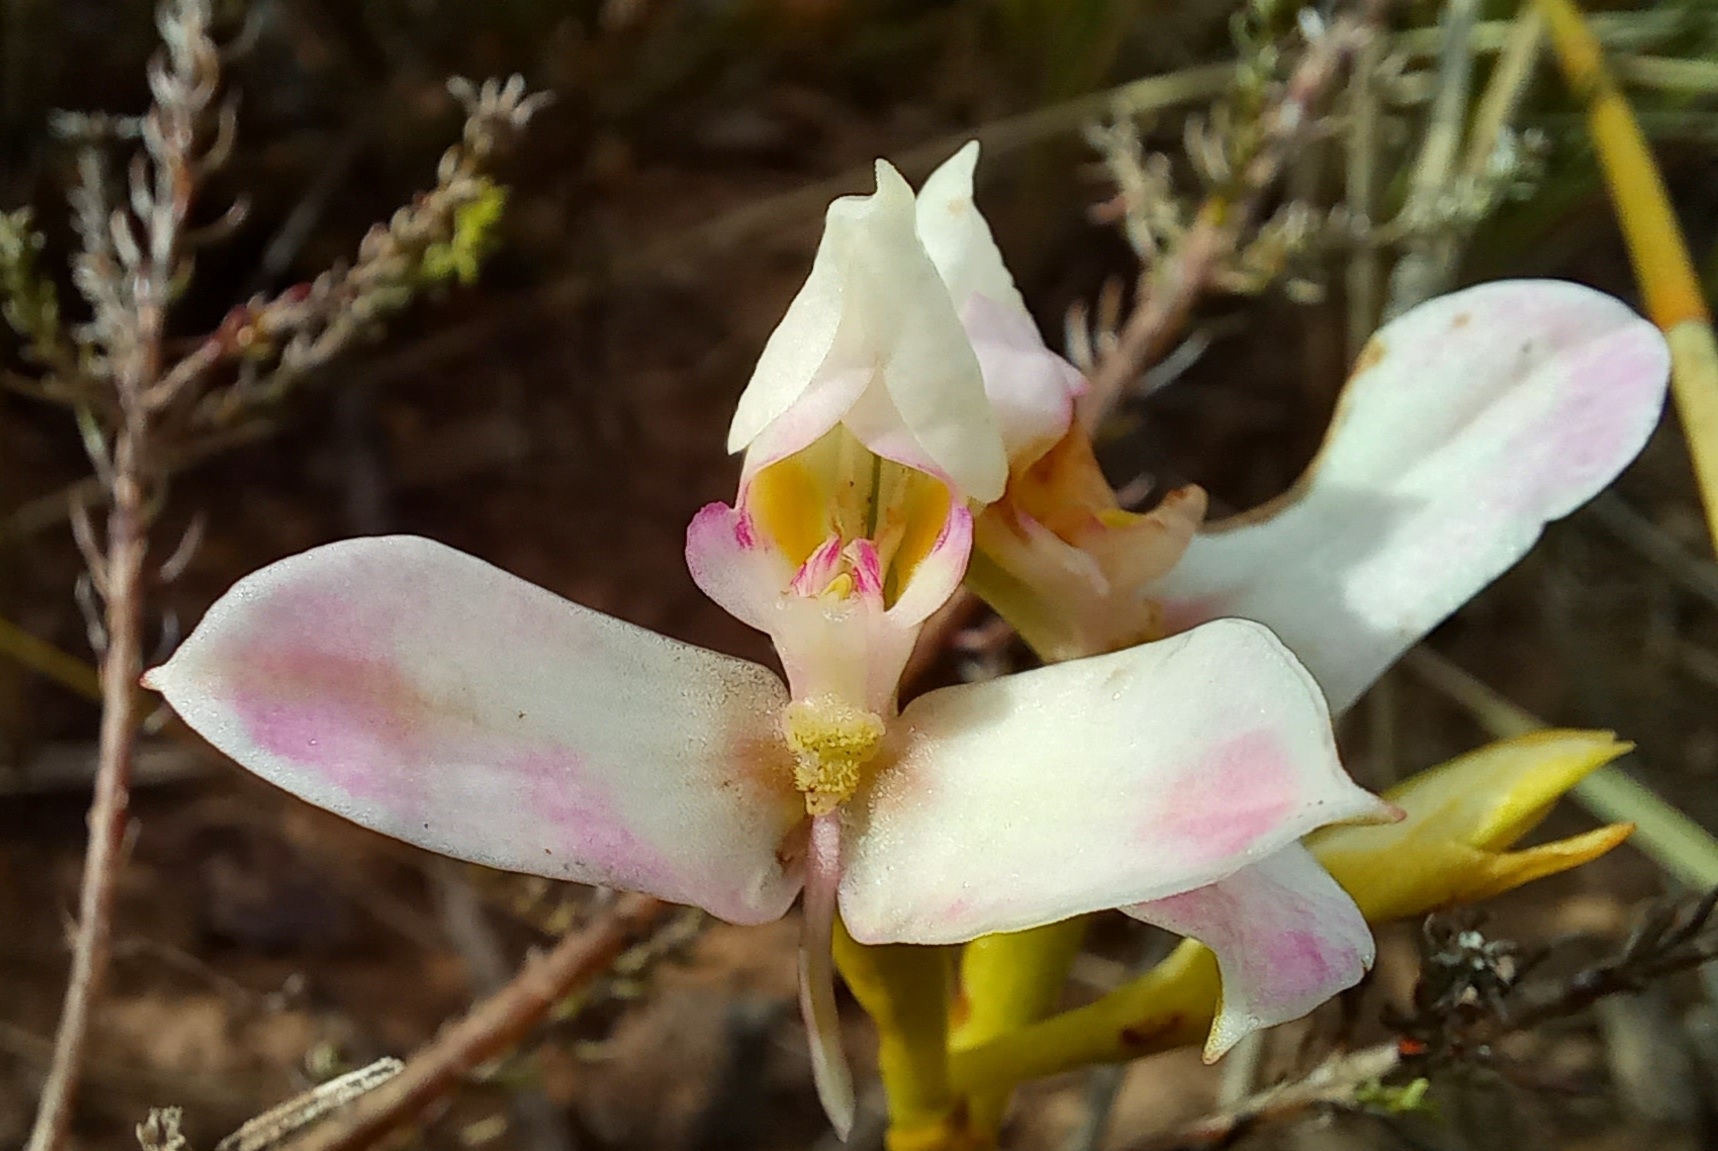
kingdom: Plantae
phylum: Tracheophyta
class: Liliopsida
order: Asparagales
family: Orchidaceae
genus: Disa
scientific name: Disa filicornis
